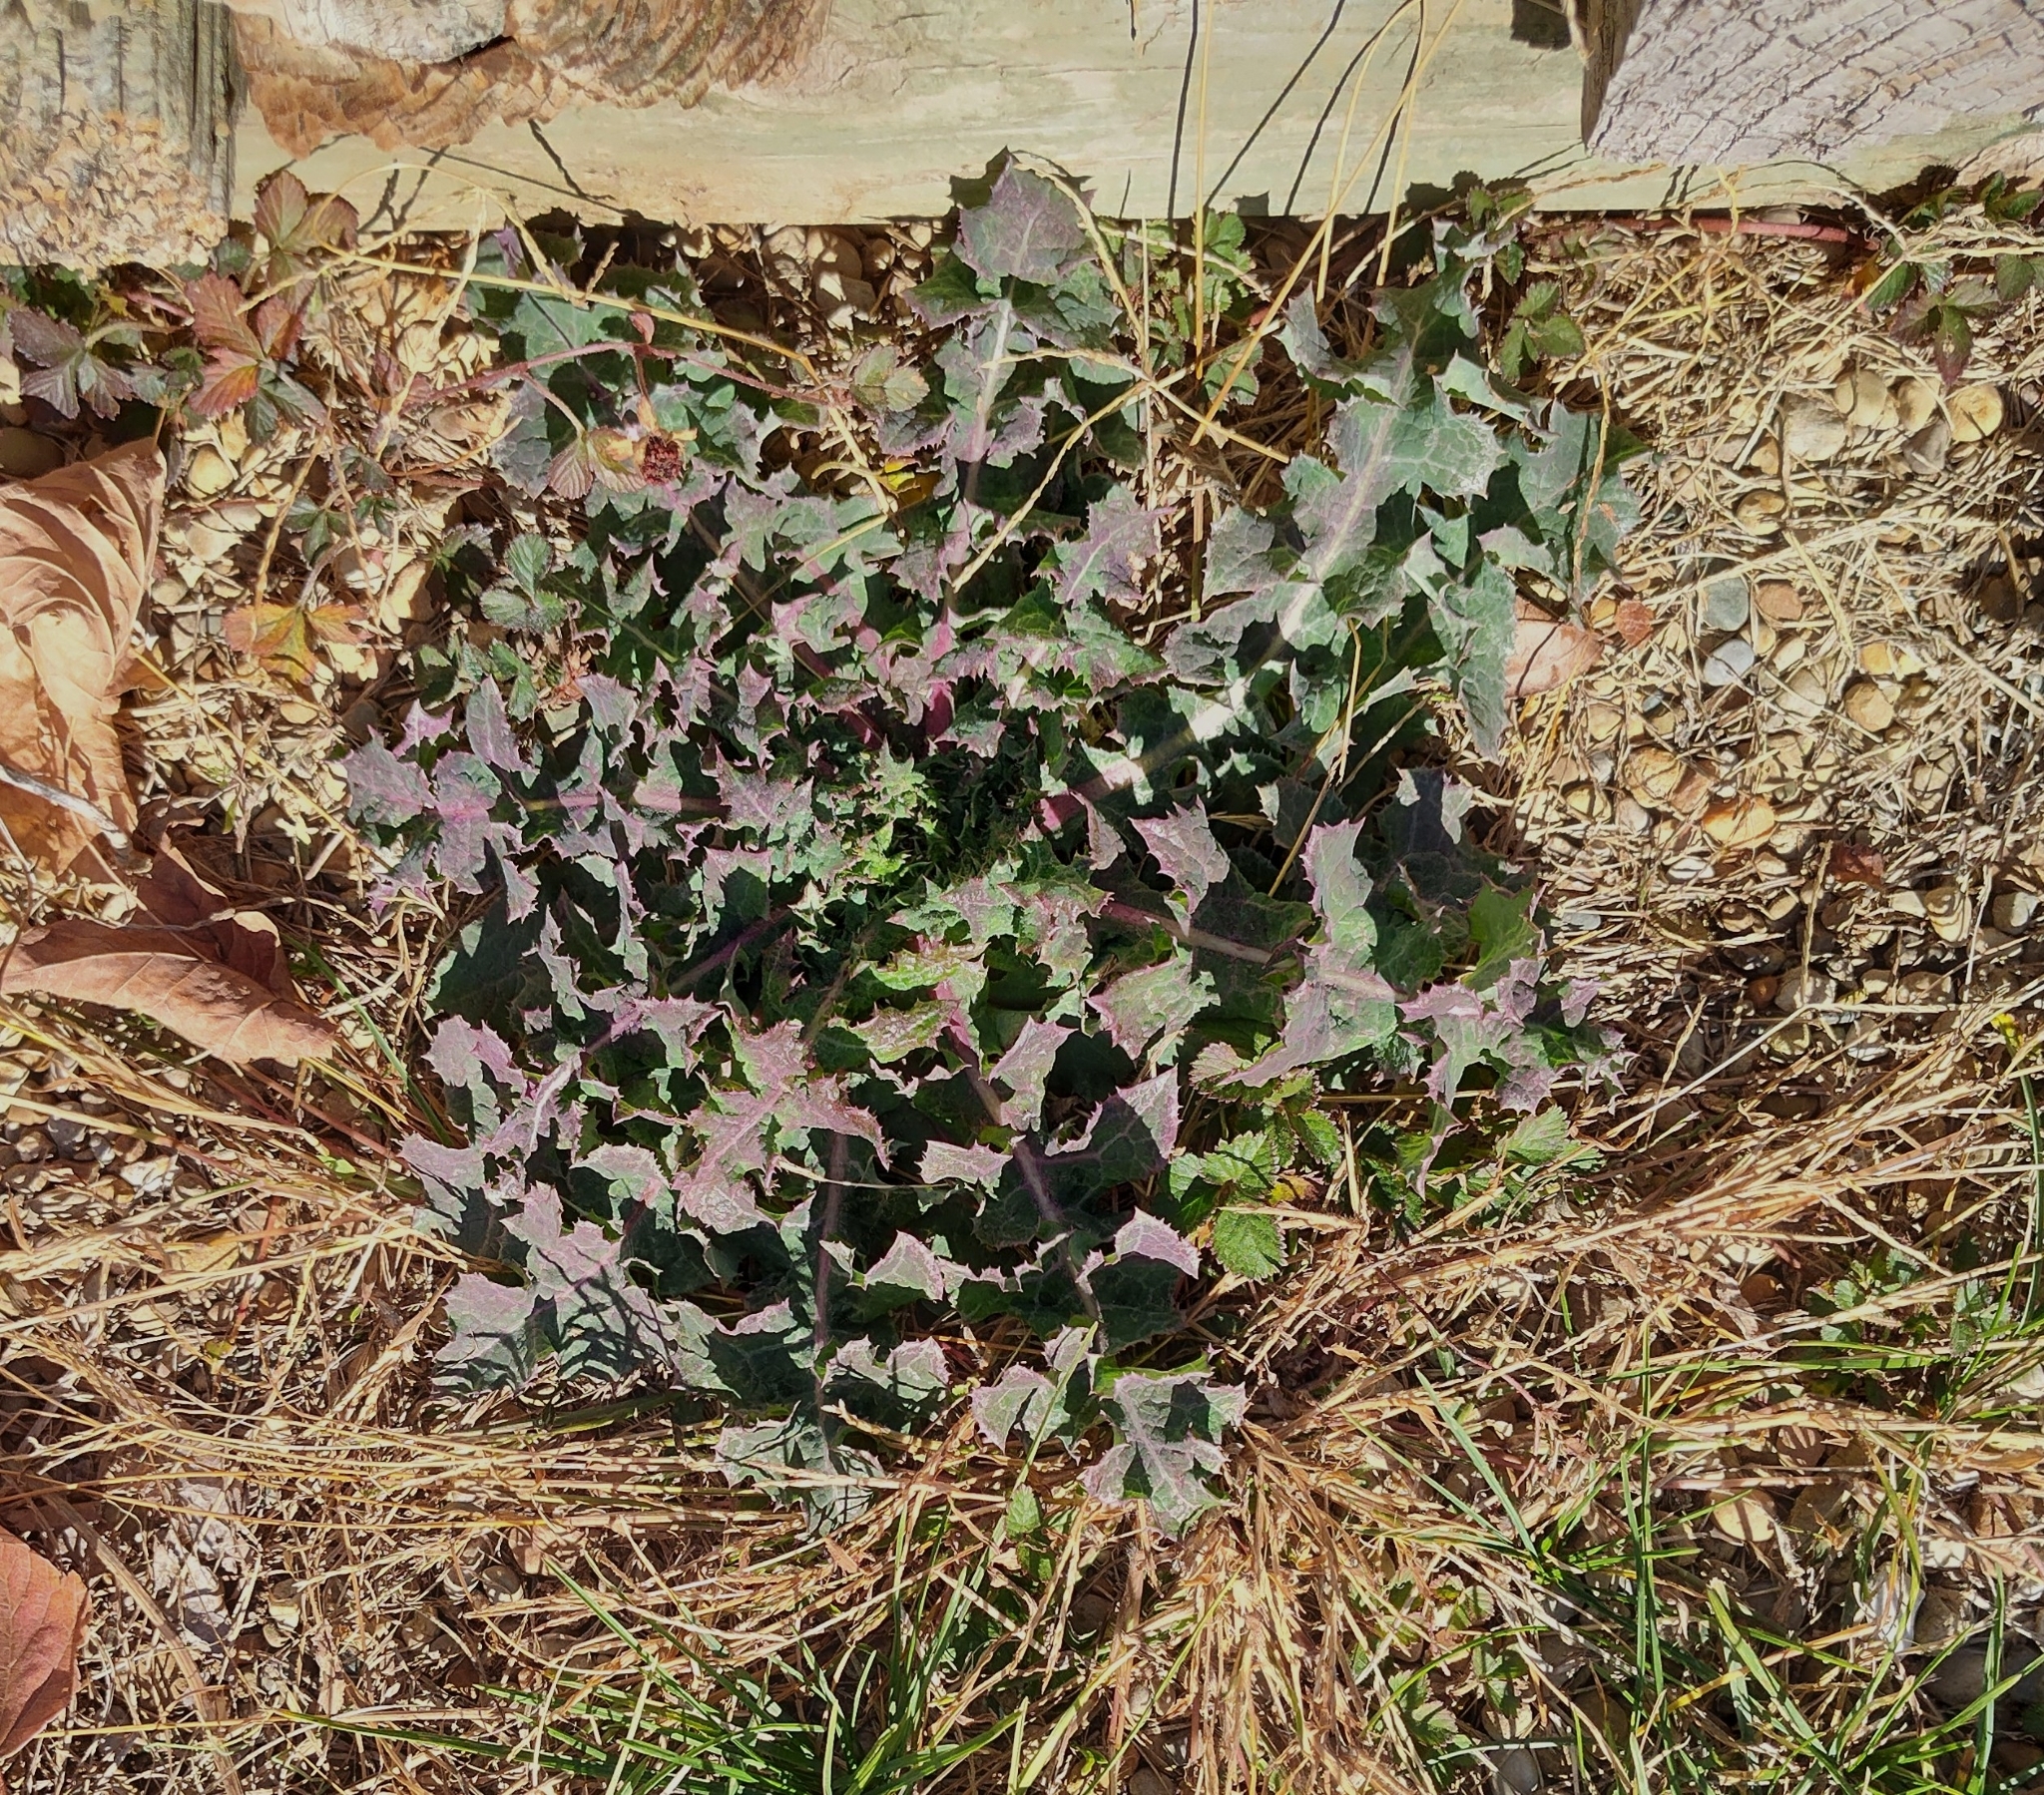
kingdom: Plantae
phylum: Tracheophyta
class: Magnoliopsida
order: Asterales
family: Asteraceae
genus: Sonchus
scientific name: Sonchus asper
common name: Prickly sow-thistle
